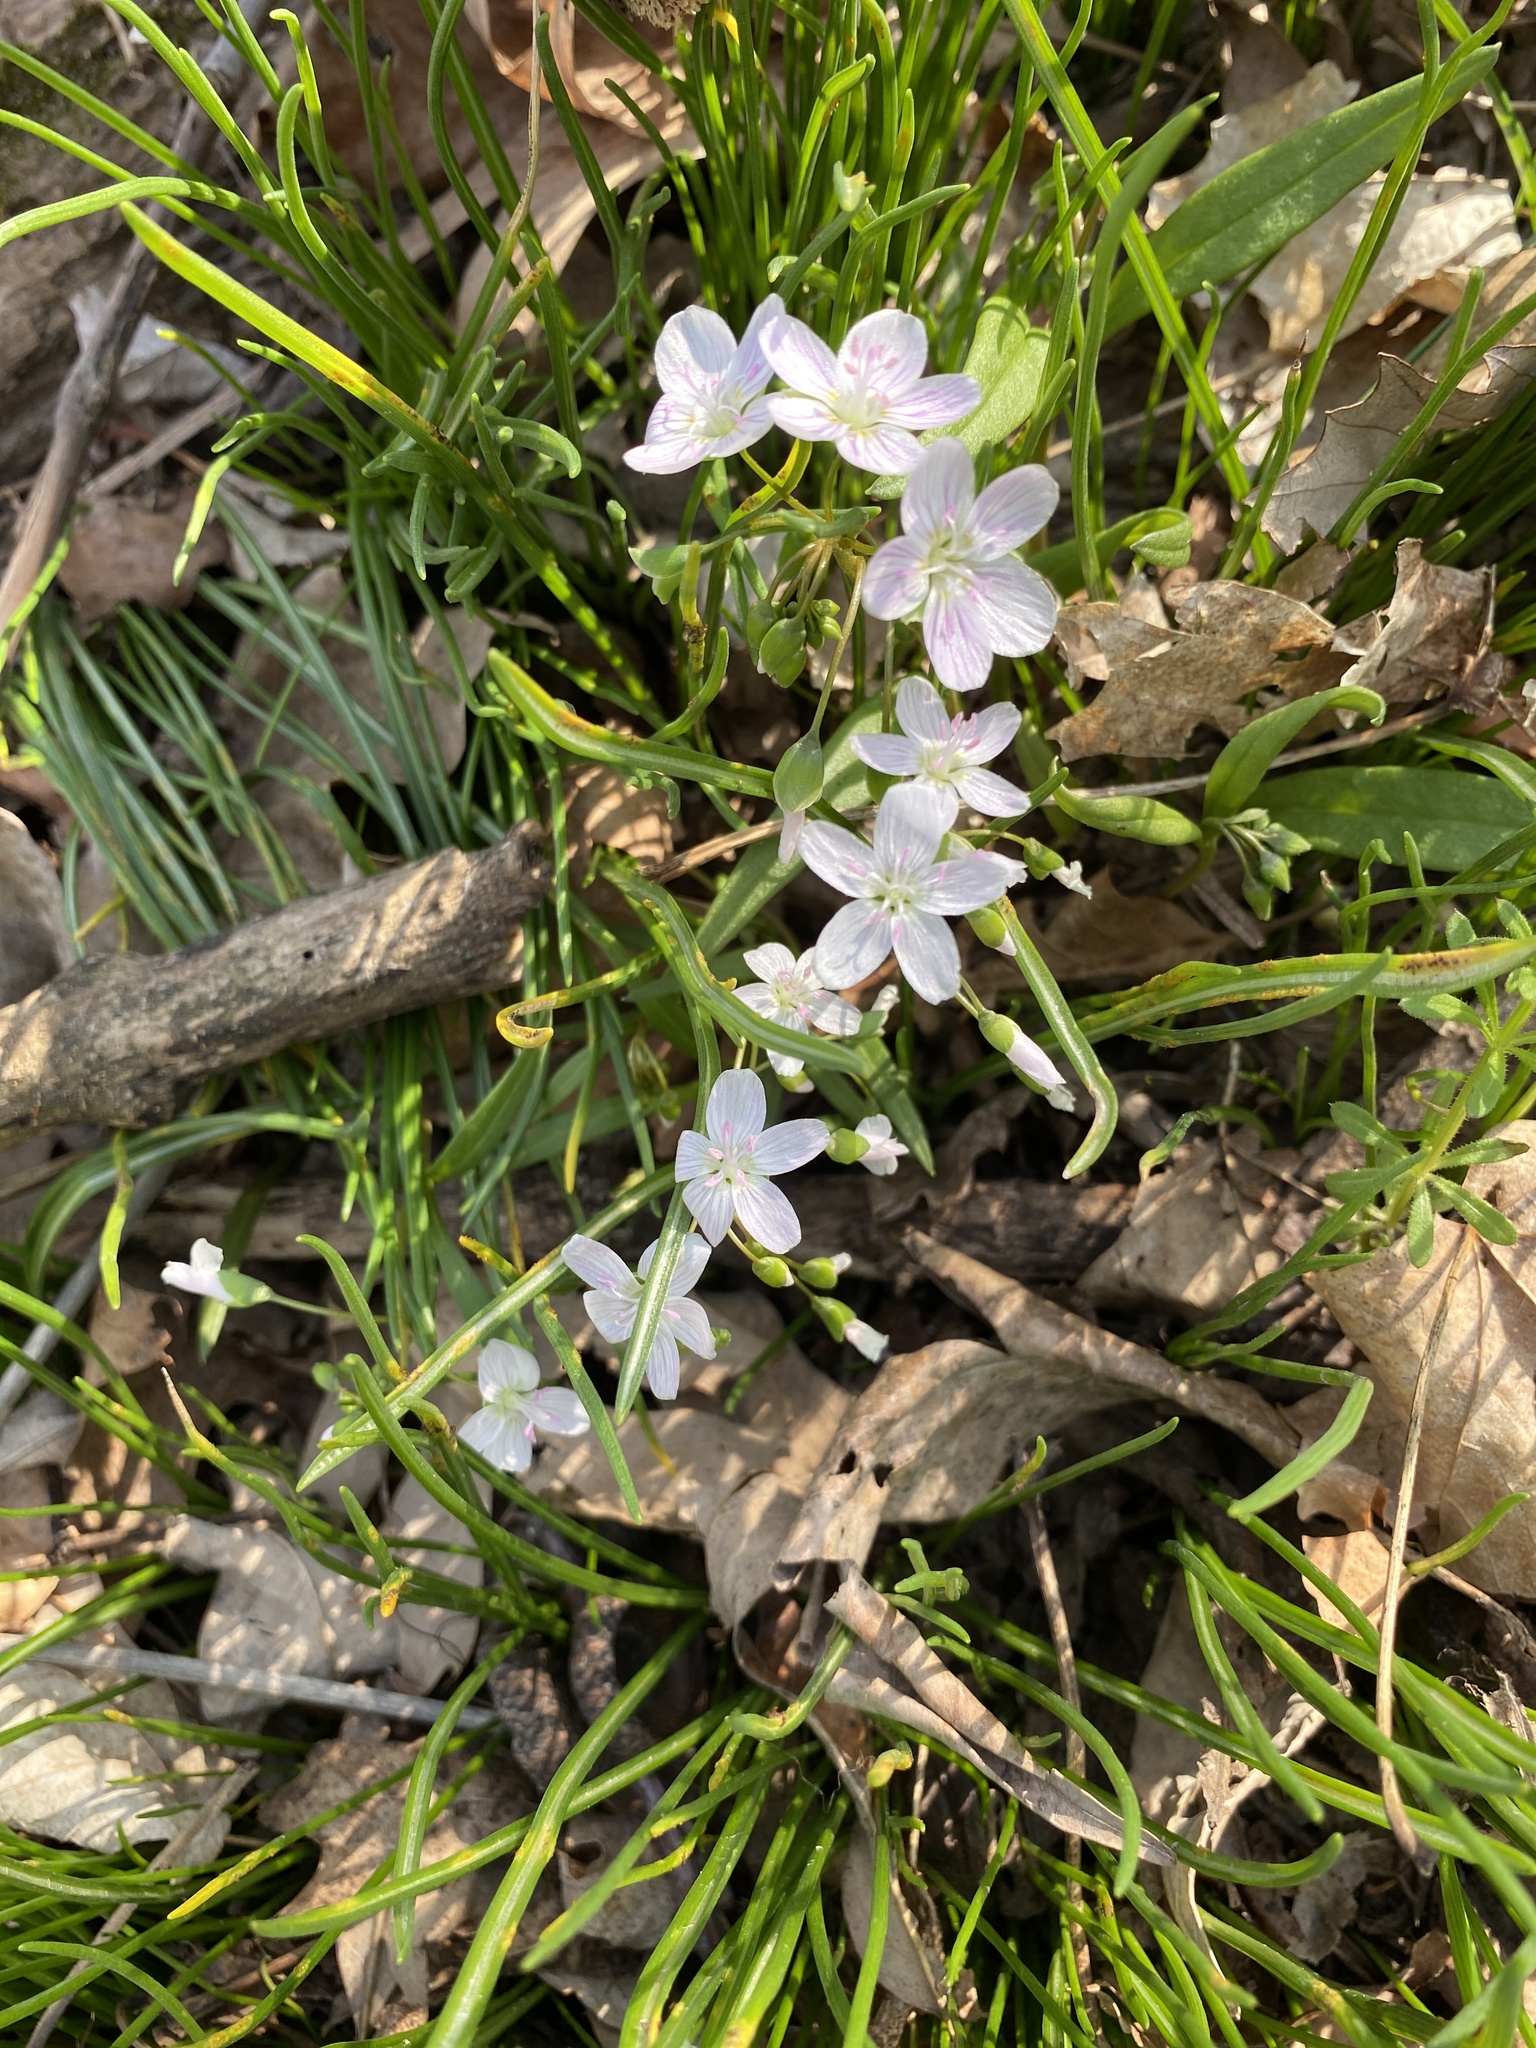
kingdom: Plantae
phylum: Tracheophyta
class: Magnoliopsida
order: Caryophyllales
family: Montiaceae
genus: Claytonia
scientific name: Claytonia virginica
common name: Virginia springbeauty
